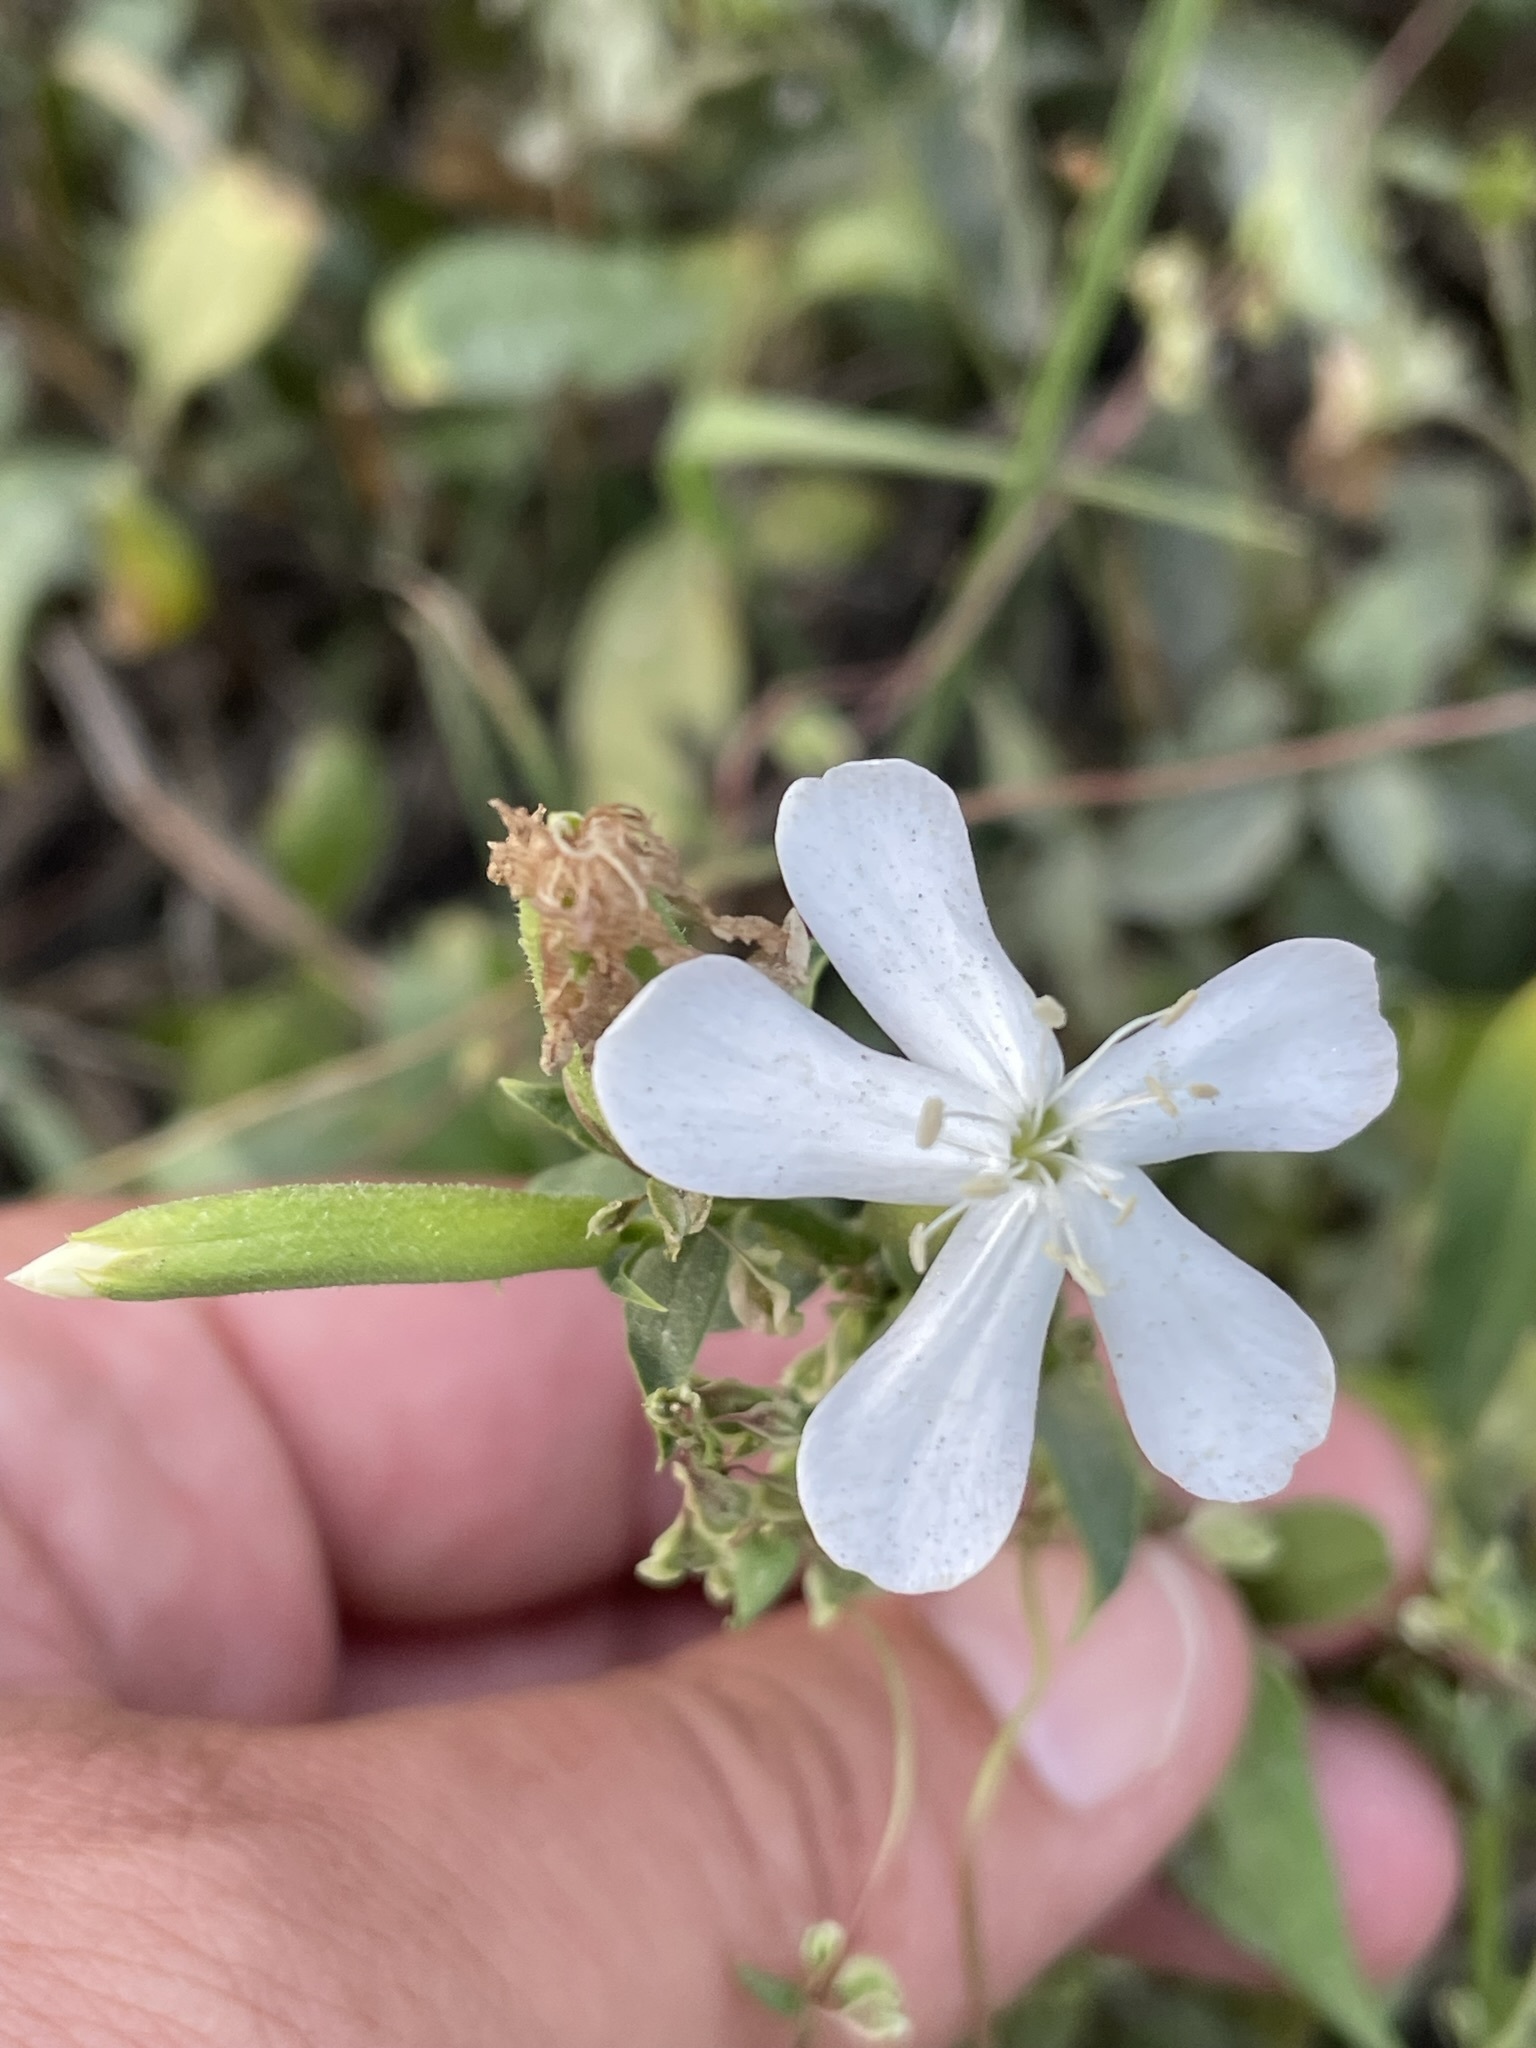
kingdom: Plantae
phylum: Tracheophyta
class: Magnoliopsida
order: Caryophyllales
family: Caryophyllaceae
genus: Saponaria
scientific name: Saponaria officinalis
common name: Soapwort
